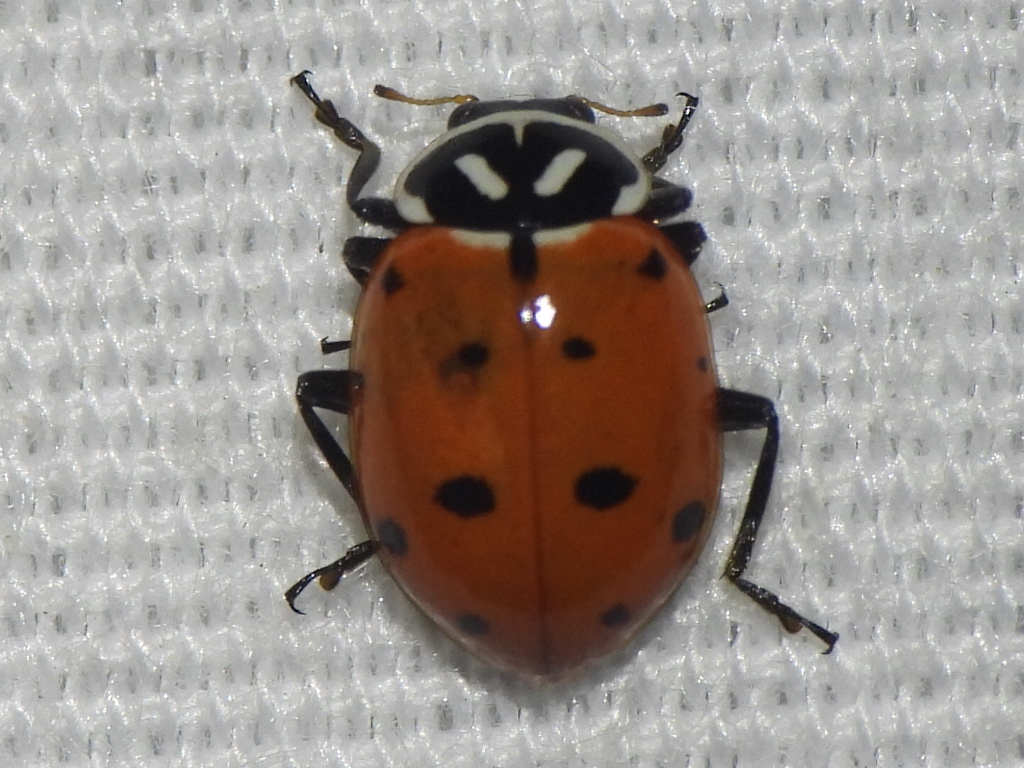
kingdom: Animalia
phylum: Arthropoda
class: Insecta
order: Coleoptera
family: Coccinellidae
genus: Hippodamia
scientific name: Hippodamia convergens
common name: Convergent lady beetle
